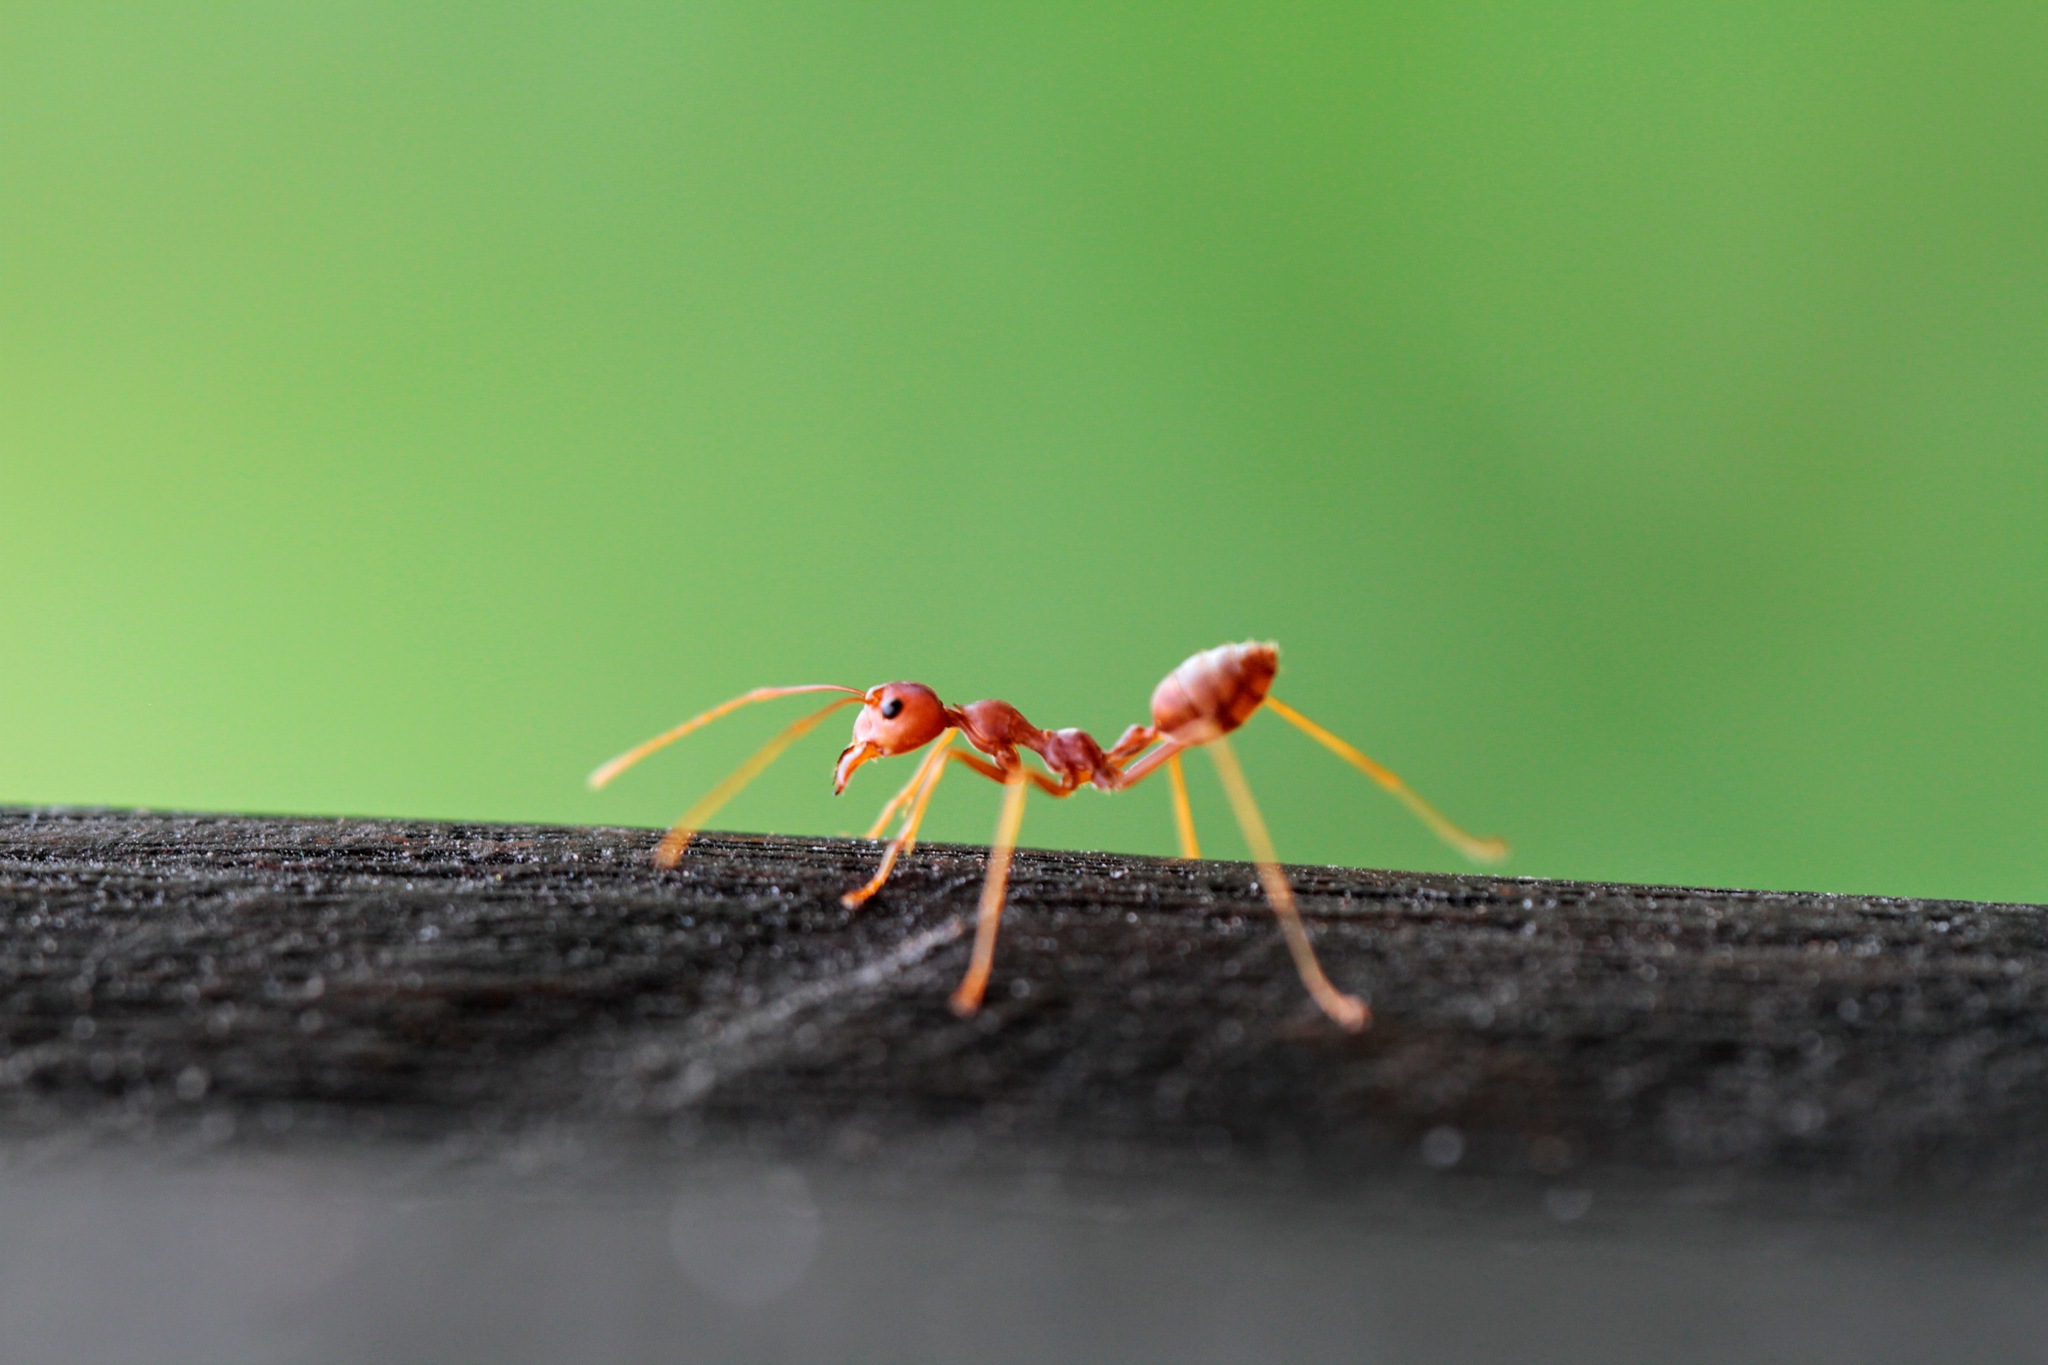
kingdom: Animalia
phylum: Arthropoda
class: Insecta
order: Hymenoptera
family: Formicidae
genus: Oecophylla
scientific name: Oecophylla smaragdina
